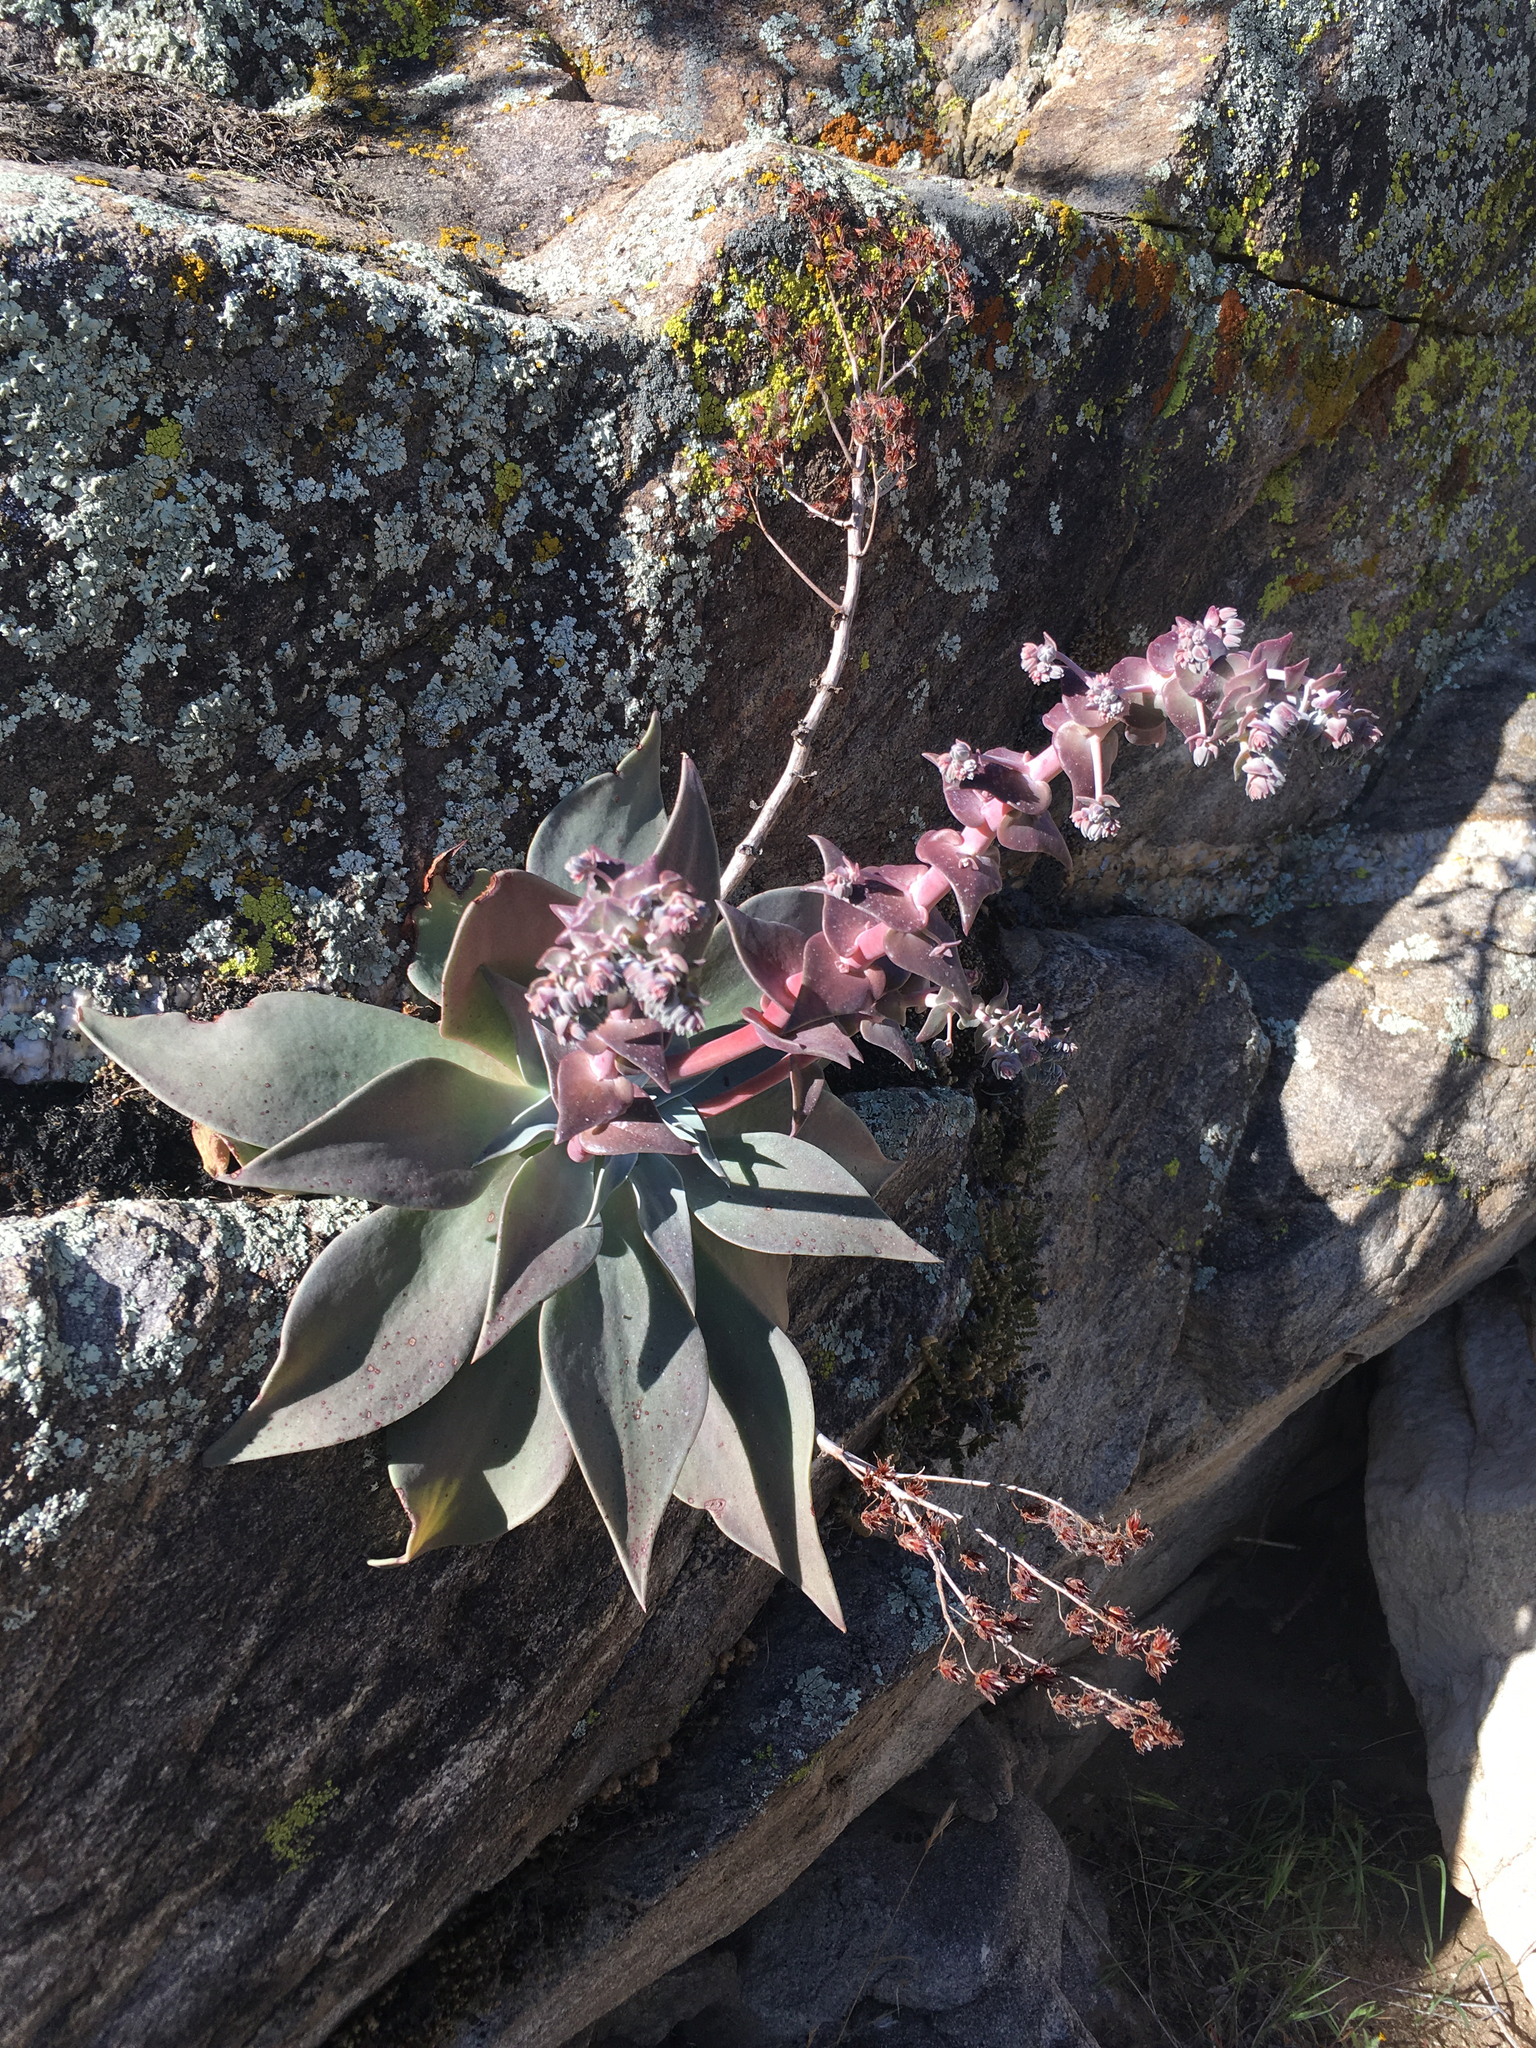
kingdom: Plantae
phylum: Tracheophyta
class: Magnoliopsida
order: Saxifragales
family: Crassulaceae
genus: Dudleya
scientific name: Dudleya arizonica
